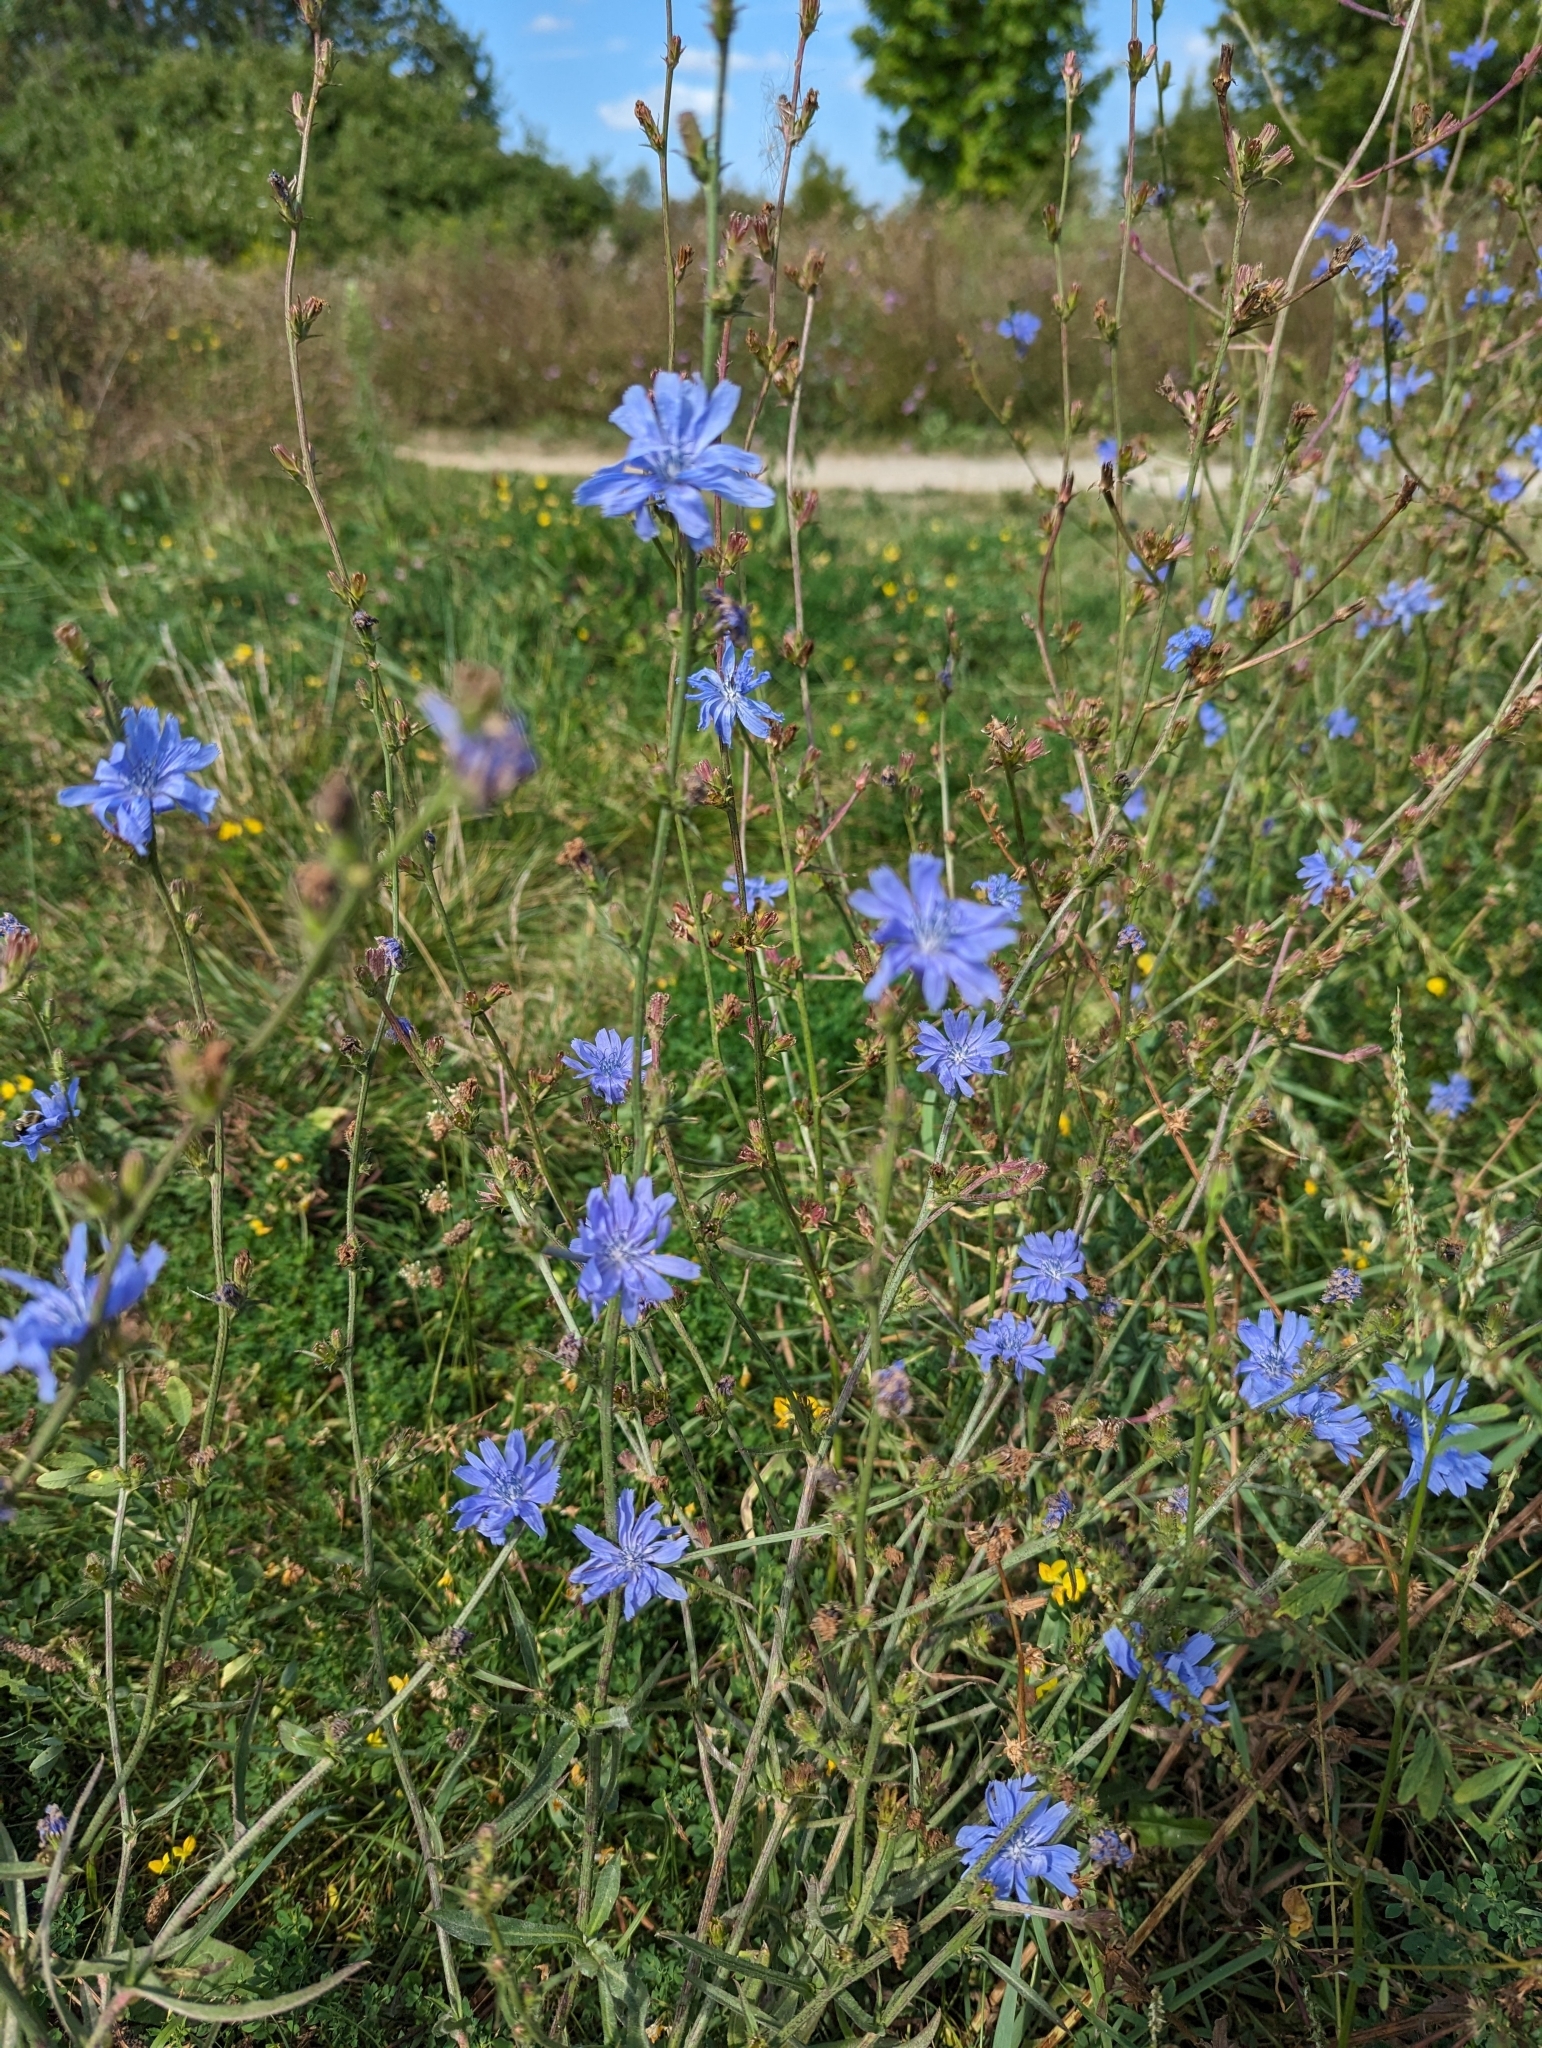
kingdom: Plantae
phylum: Tracheophyta
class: Magnoliopsida
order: Asterales
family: Asteraceae
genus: Cichorium
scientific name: Cichorium intybus
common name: Chicory
